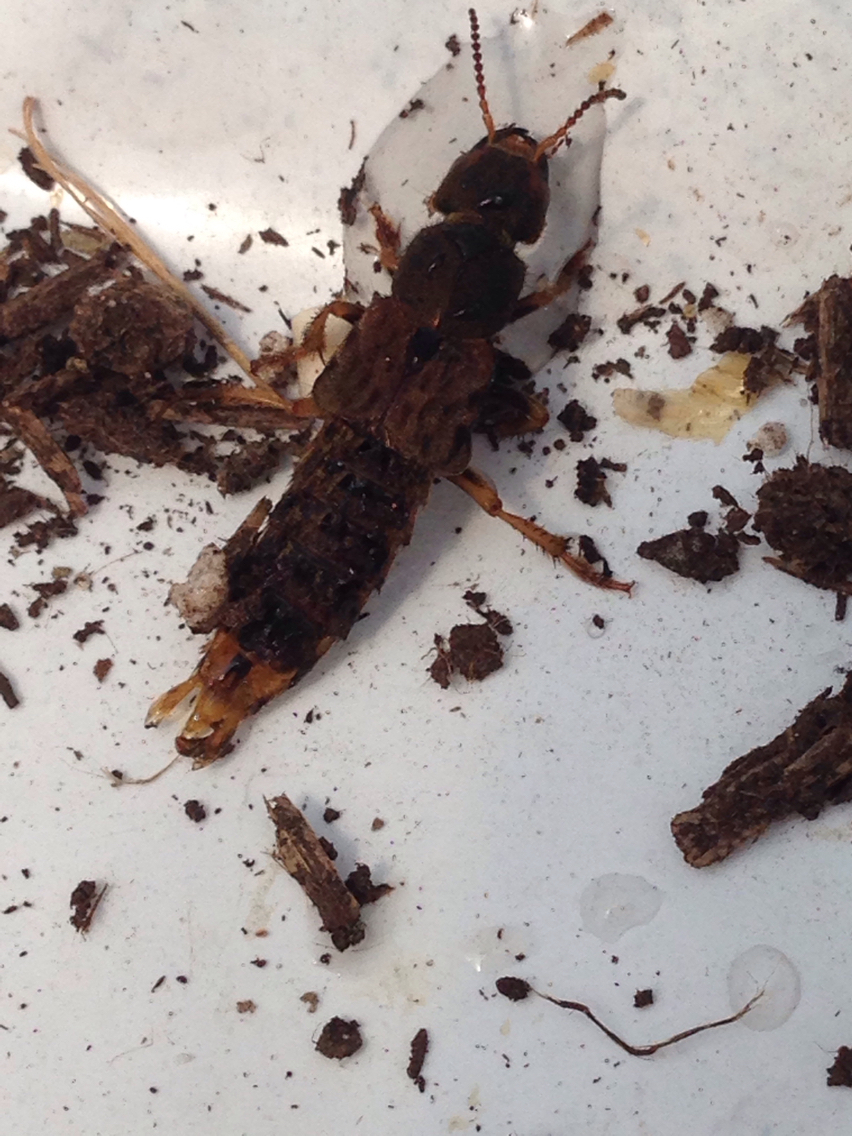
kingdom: Animalia
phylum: Arthropoda
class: Insecta
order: Coleoptera
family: Staphylinidae
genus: Platydracus
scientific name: Platydracus maculosus
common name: Brown rove beetle
